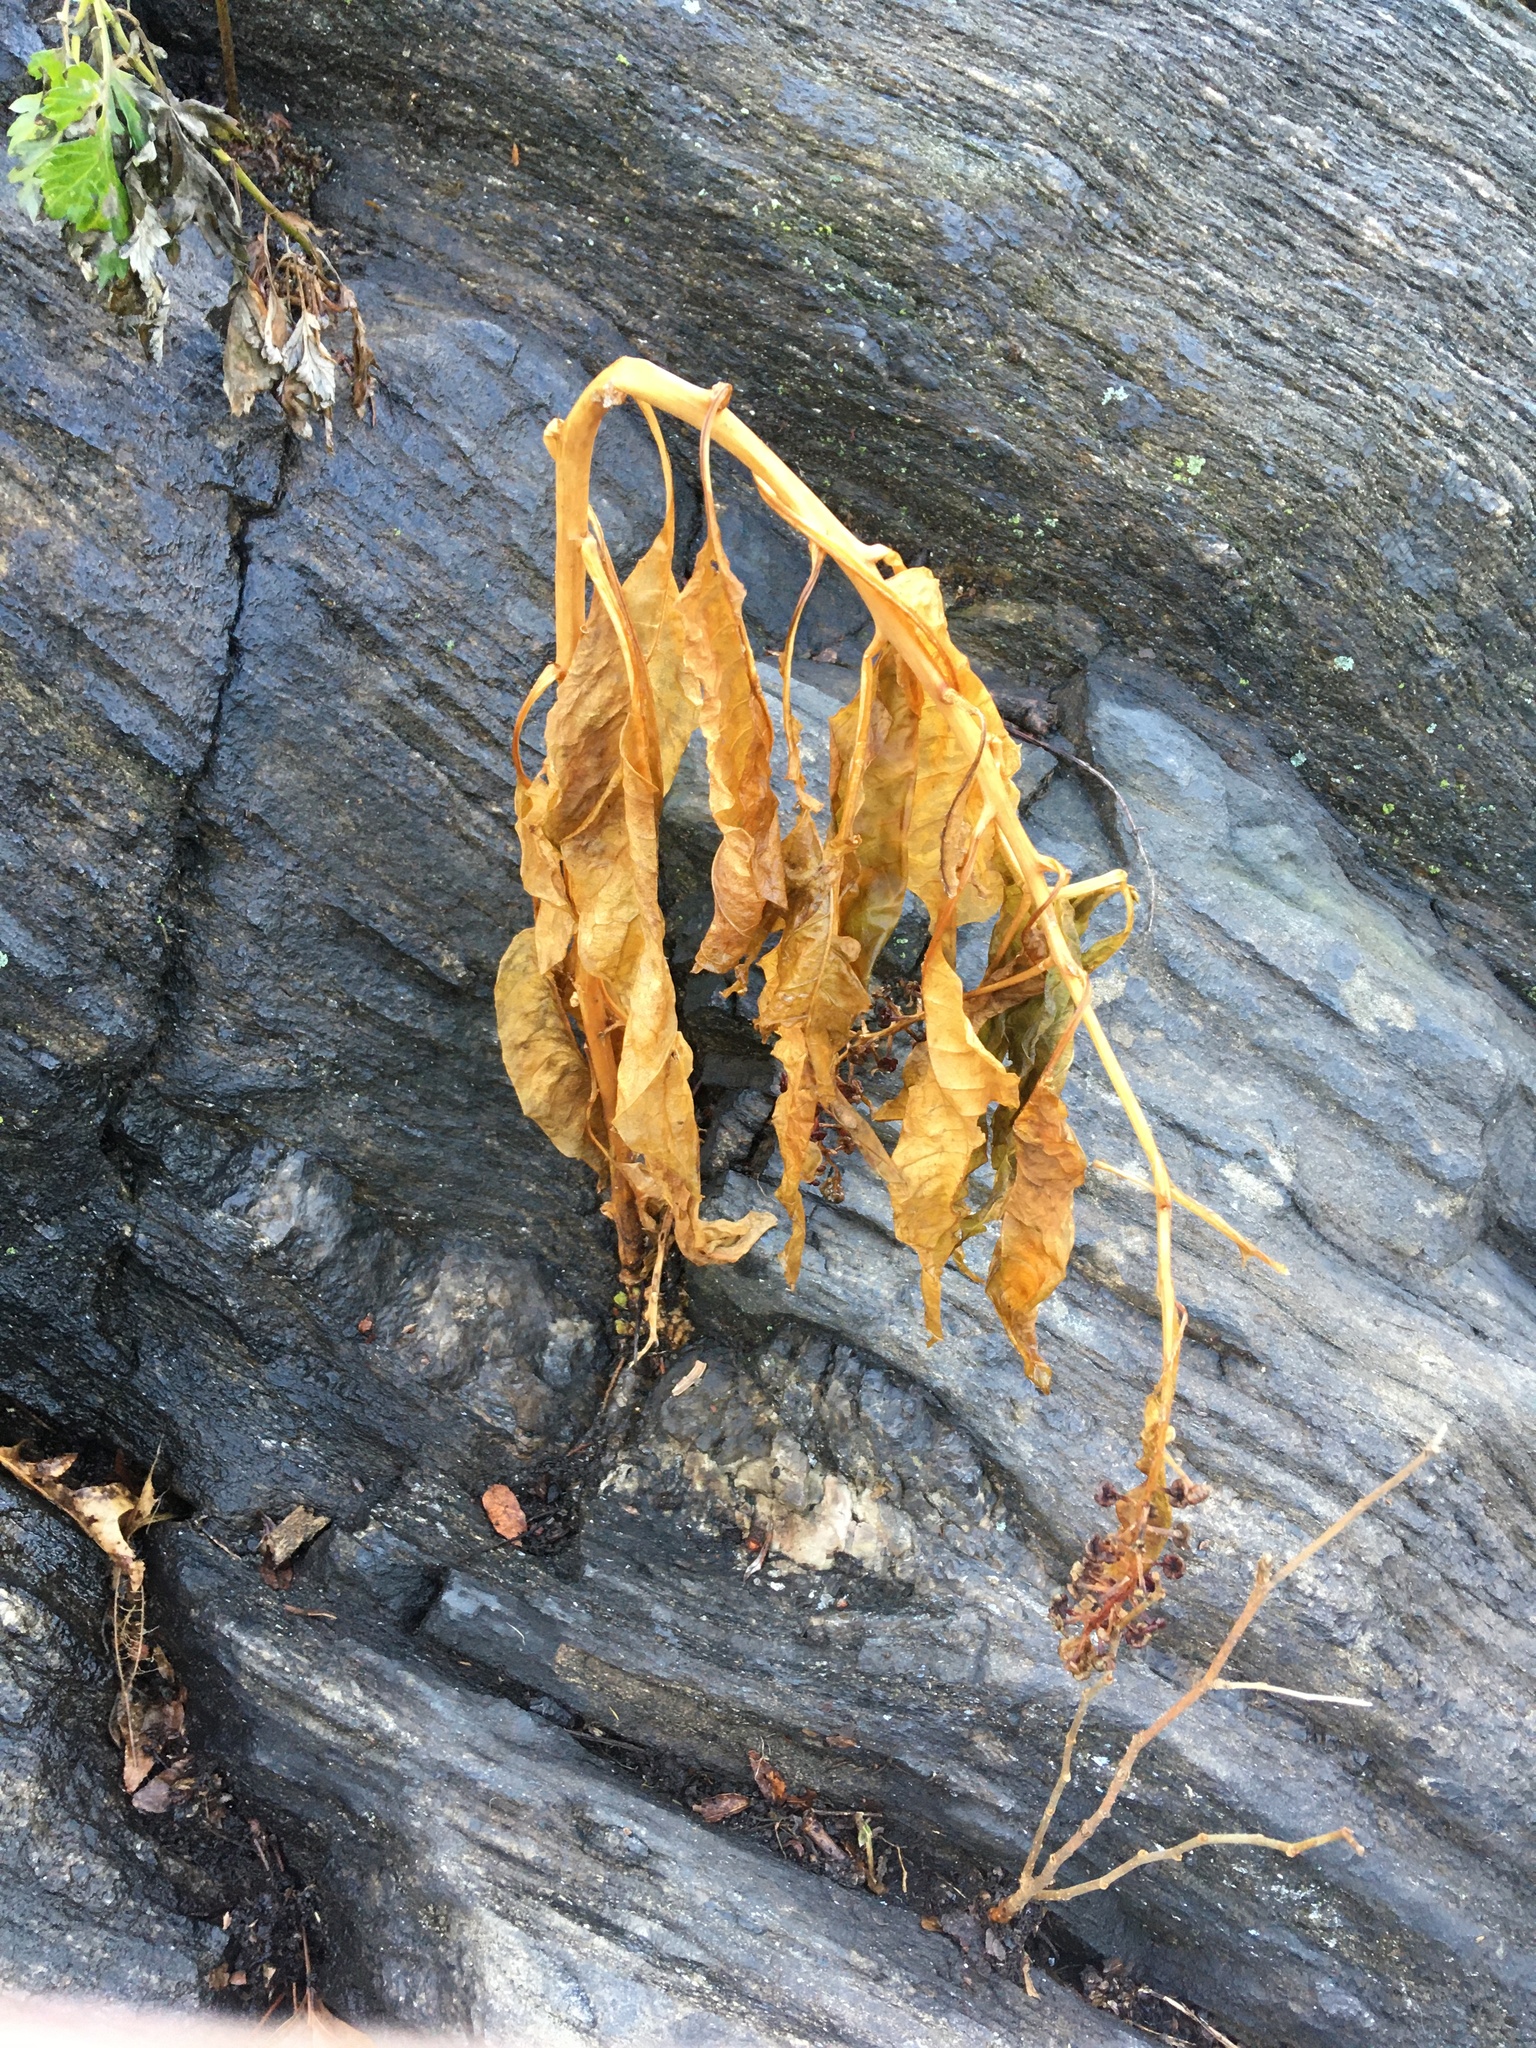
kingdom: Plantae
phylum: Tracheophyta
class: Magnoliopsida
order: Caryophyllales
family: Phytolaccaceae
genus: Phytolacca
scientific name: Phytolacca americana
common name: American pokeweed
